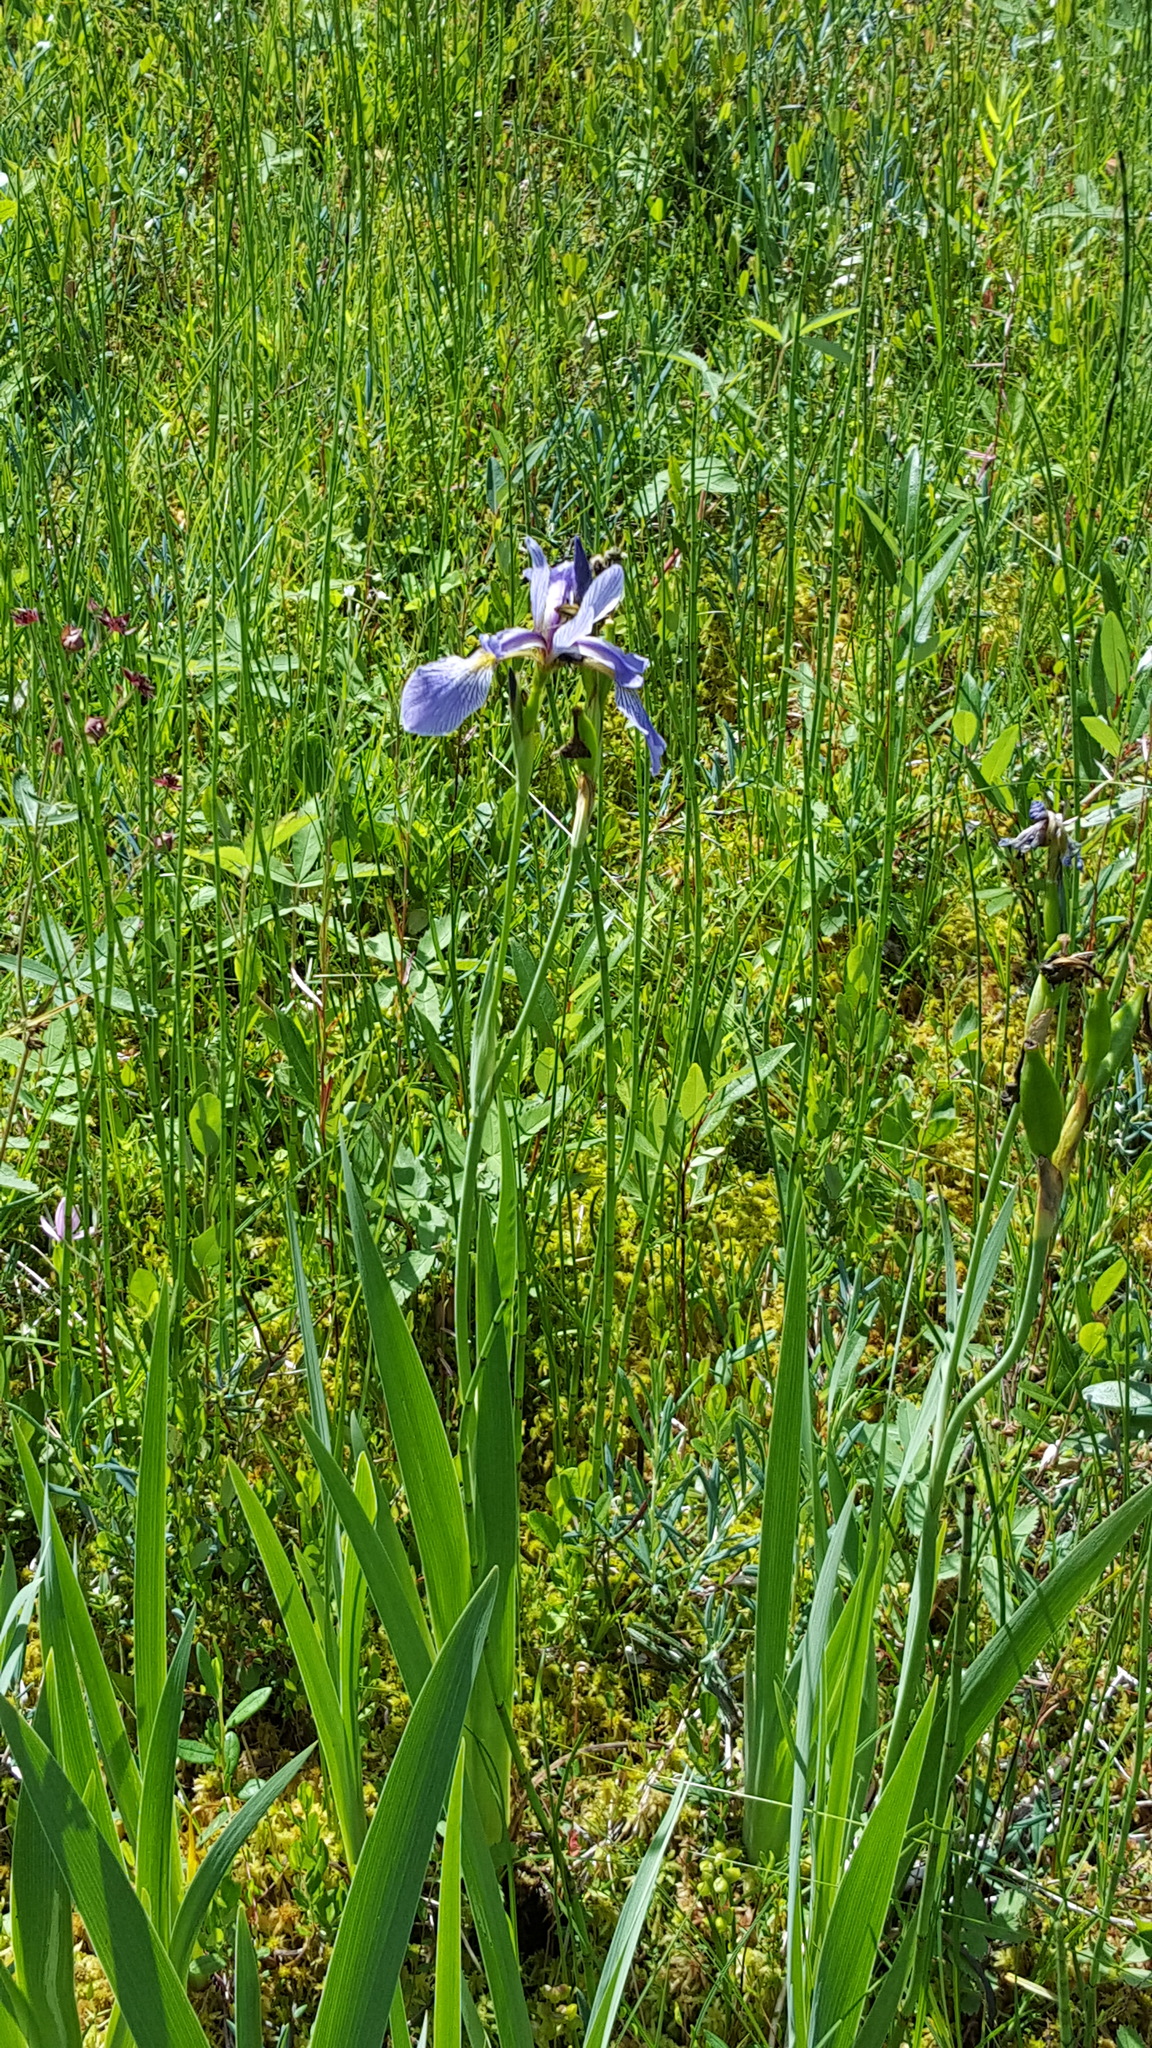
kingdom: Plantae
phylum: Tracheophyta
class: Liliopsida
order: Asparagales
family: Iridaceae
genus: Iris
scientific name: Iris versicolor
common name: Purple iris
